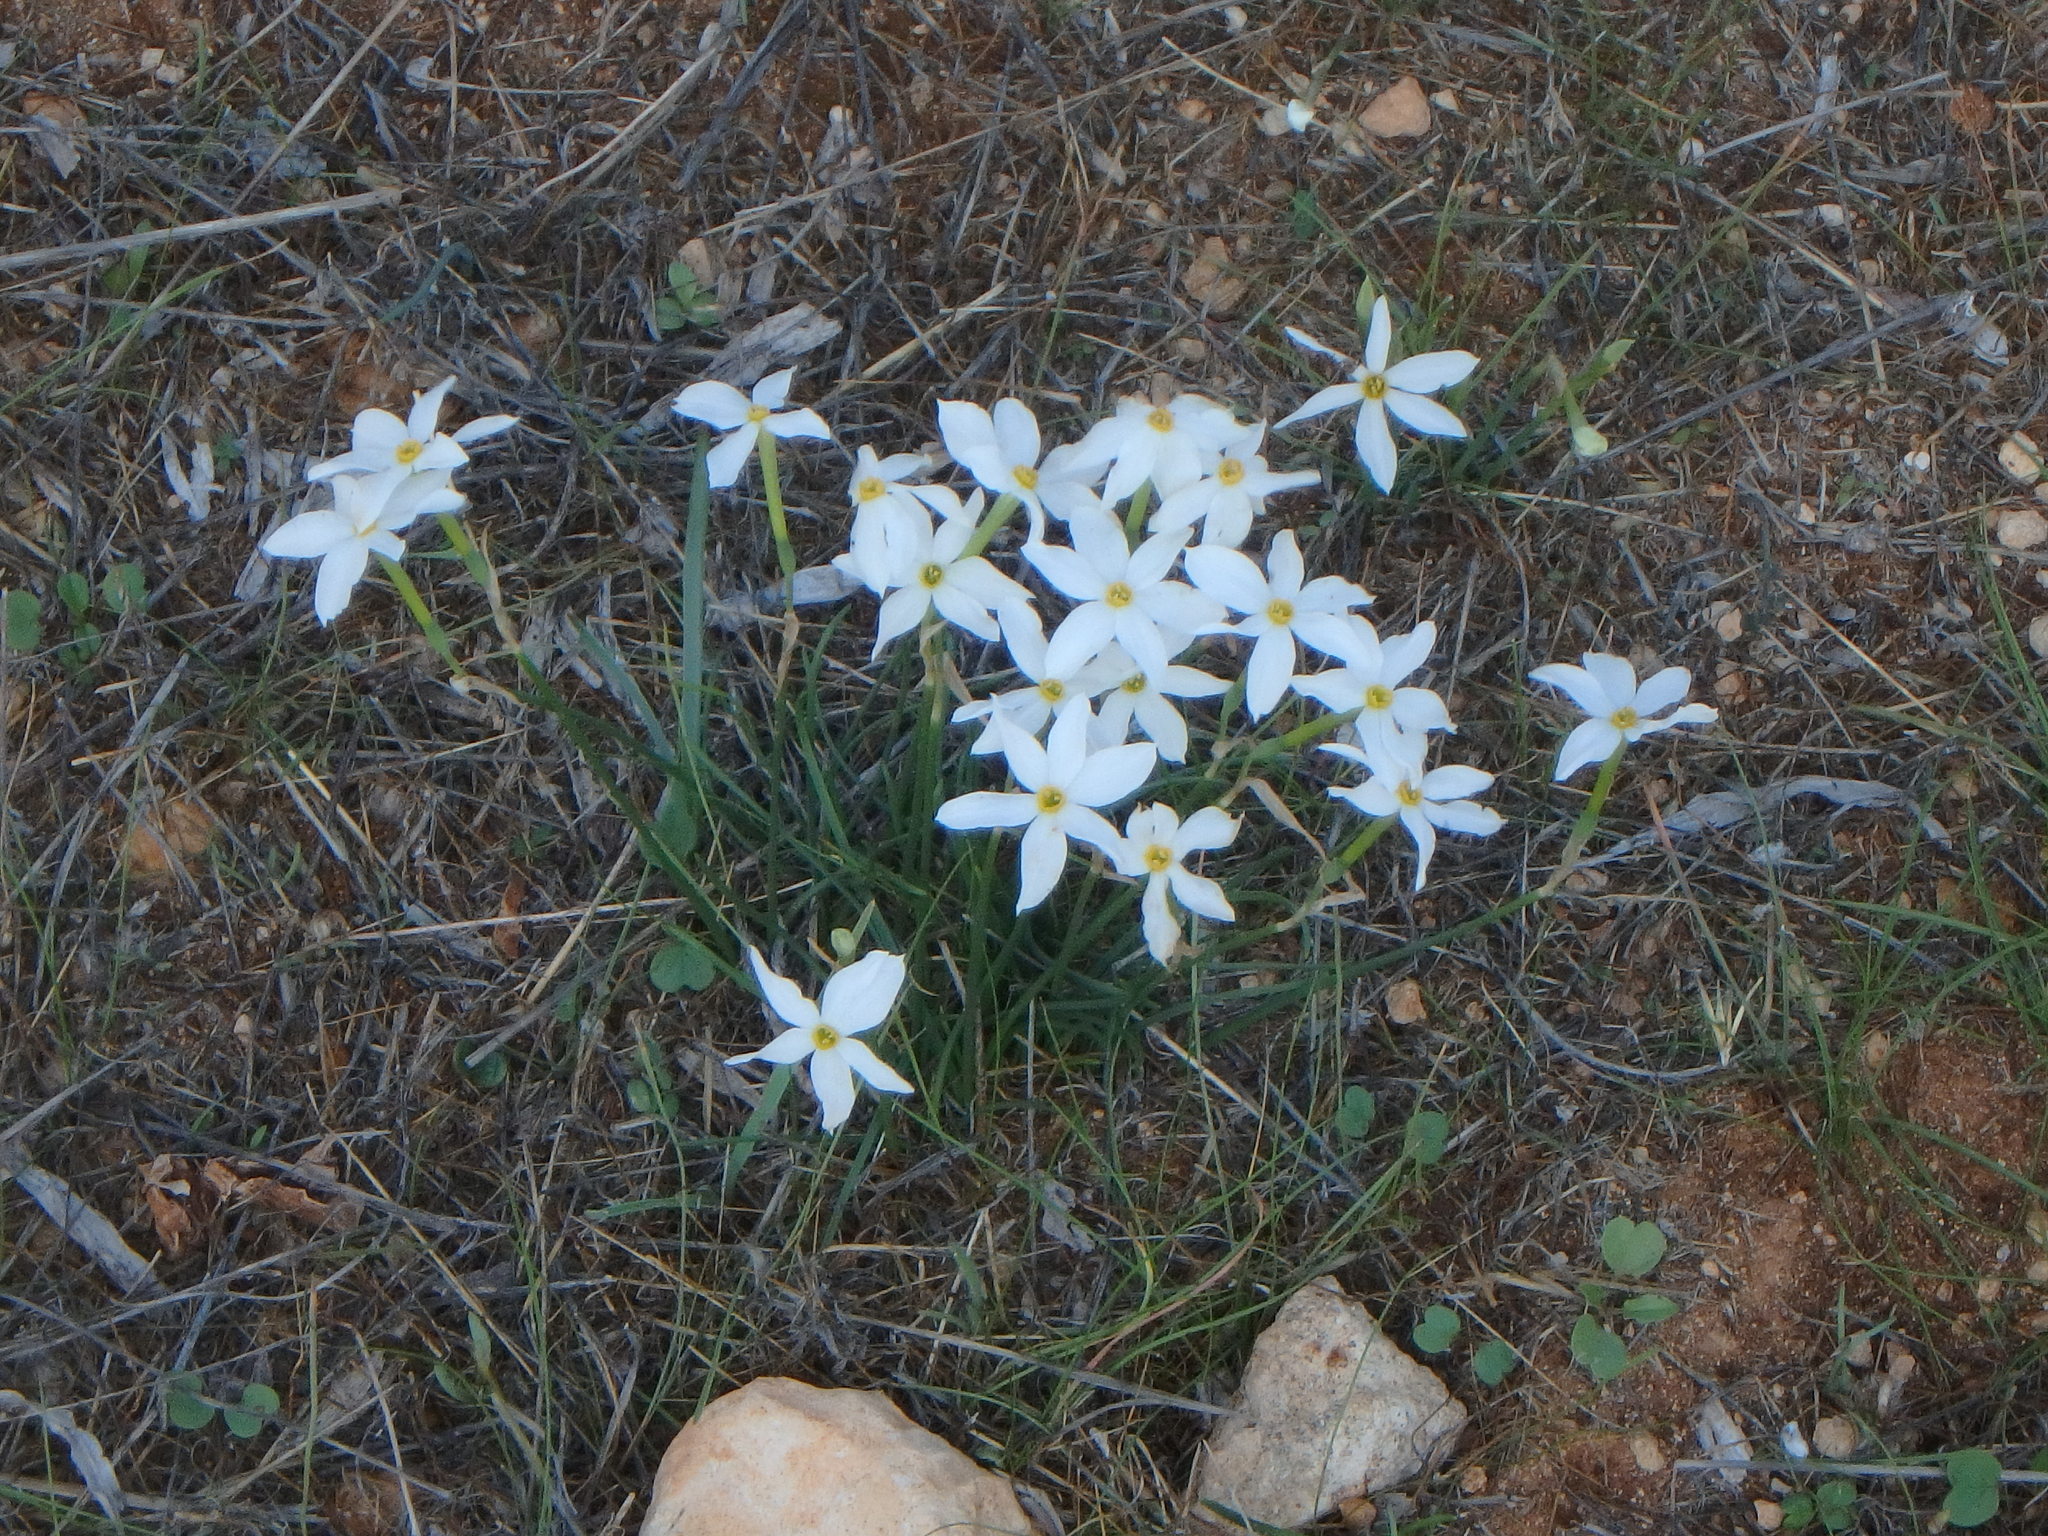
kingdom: Plantae
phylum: Tracheophyta
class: Liliopsida
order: Asparagales
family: Amaryllidaceae
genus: Narcissus
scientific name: Narcissus deficiens
